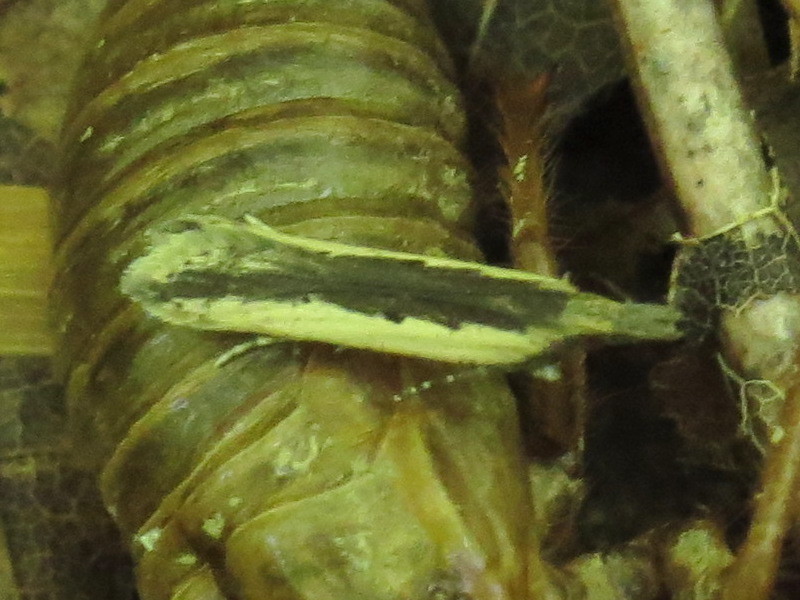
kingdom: Animalia
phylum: Arthropoda
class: Insecta
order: Lepidoptera
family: Gelechiidae
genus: Dichomeris
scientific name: Dichomeris ligulella
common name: Moth
